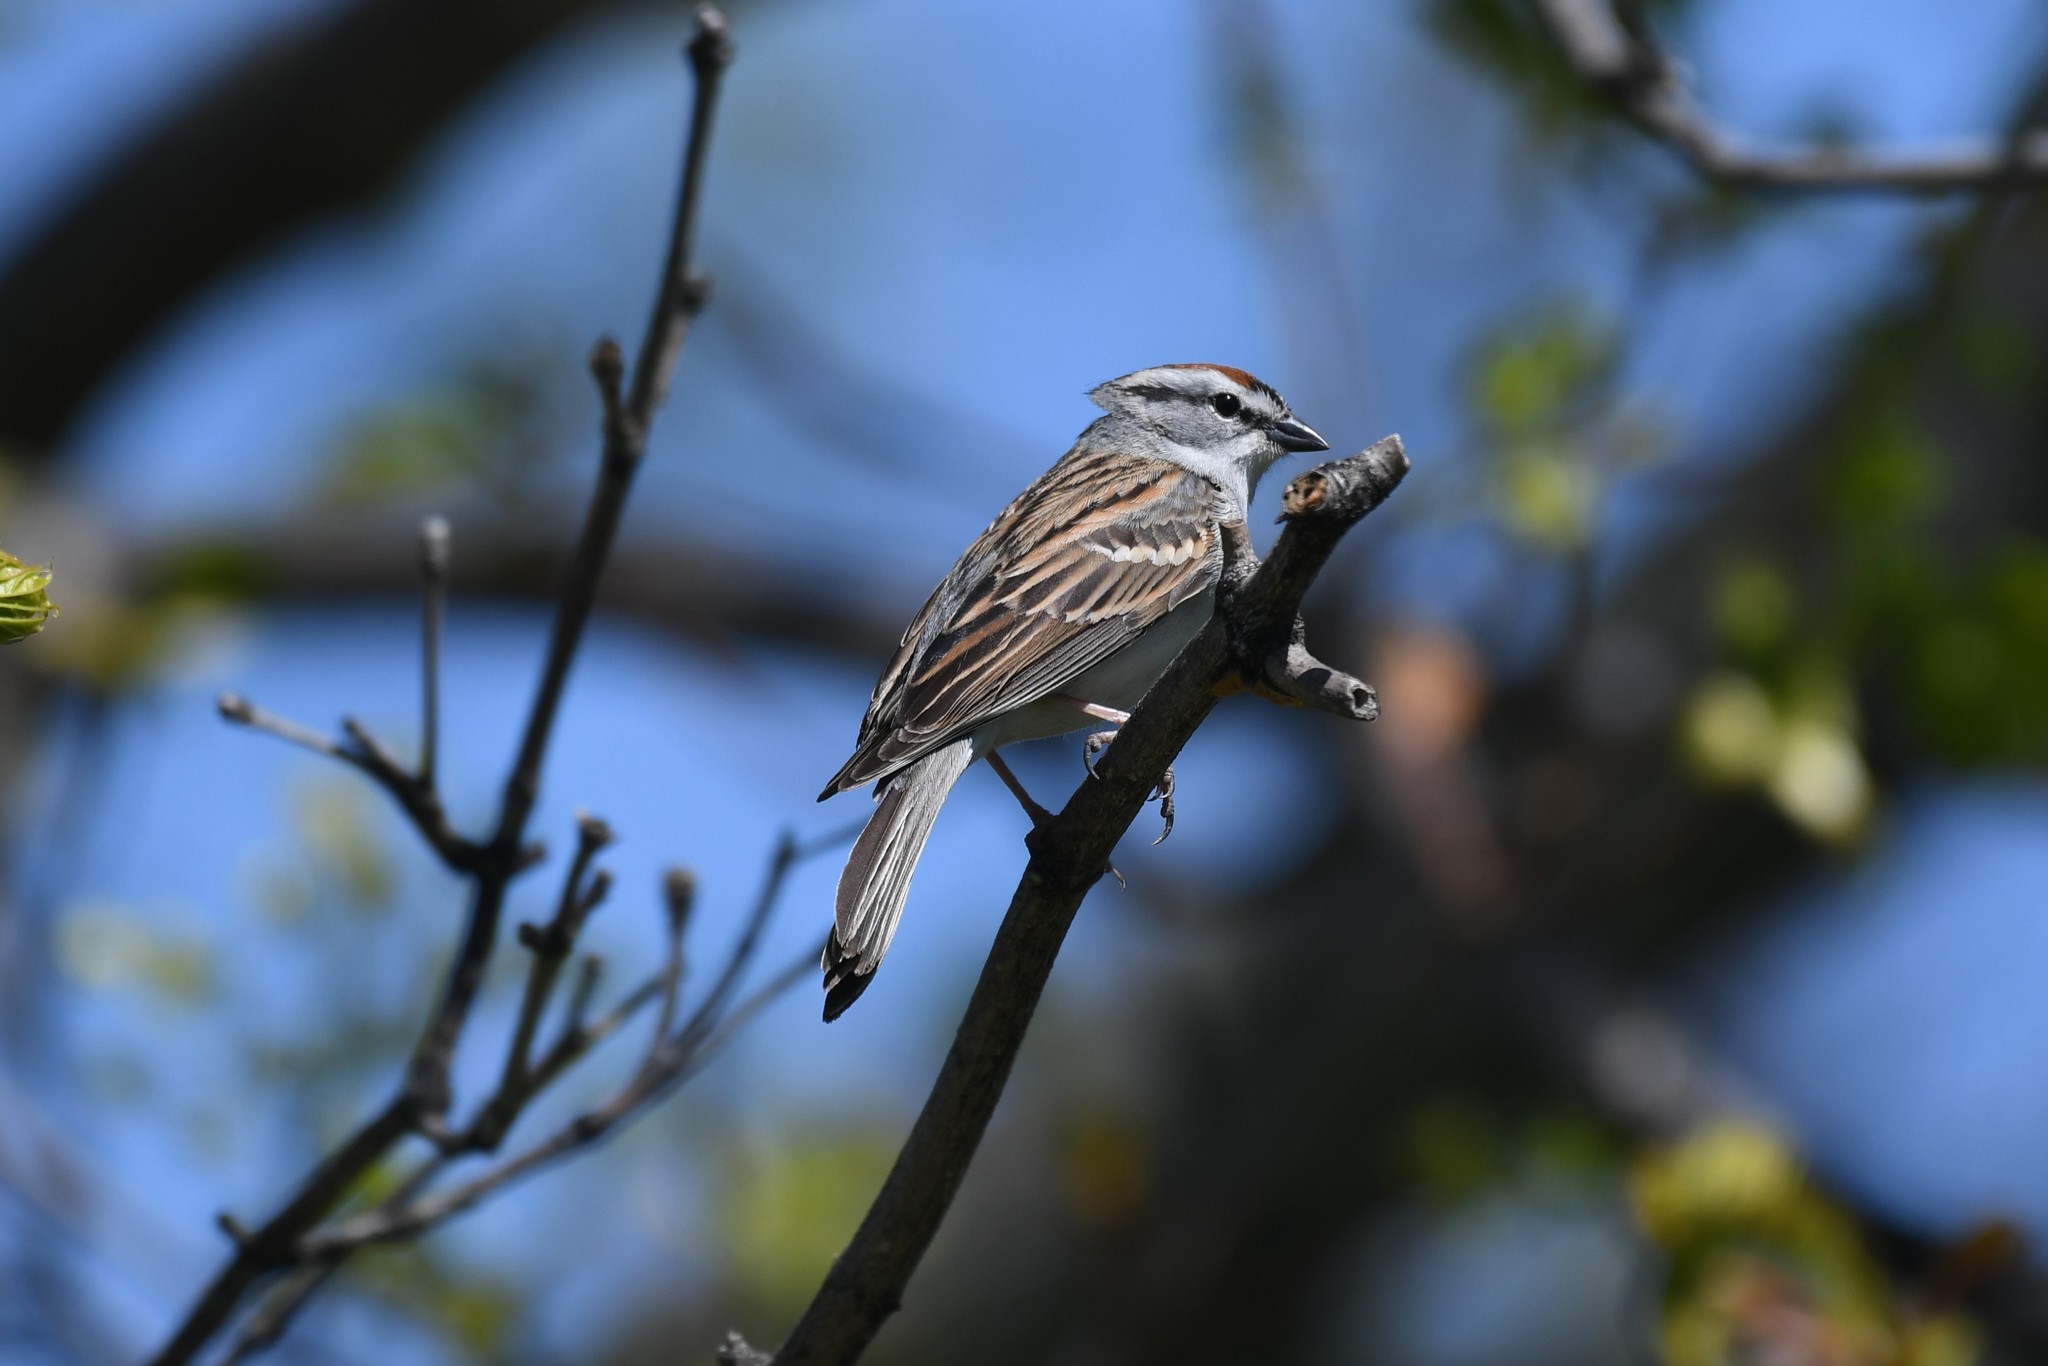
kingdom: Animalia
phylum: Chordata
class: Aves
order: Passeriformes
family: Passerellidae
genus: Spizella
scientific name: Spizella passerina
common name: Chipping sparrow
